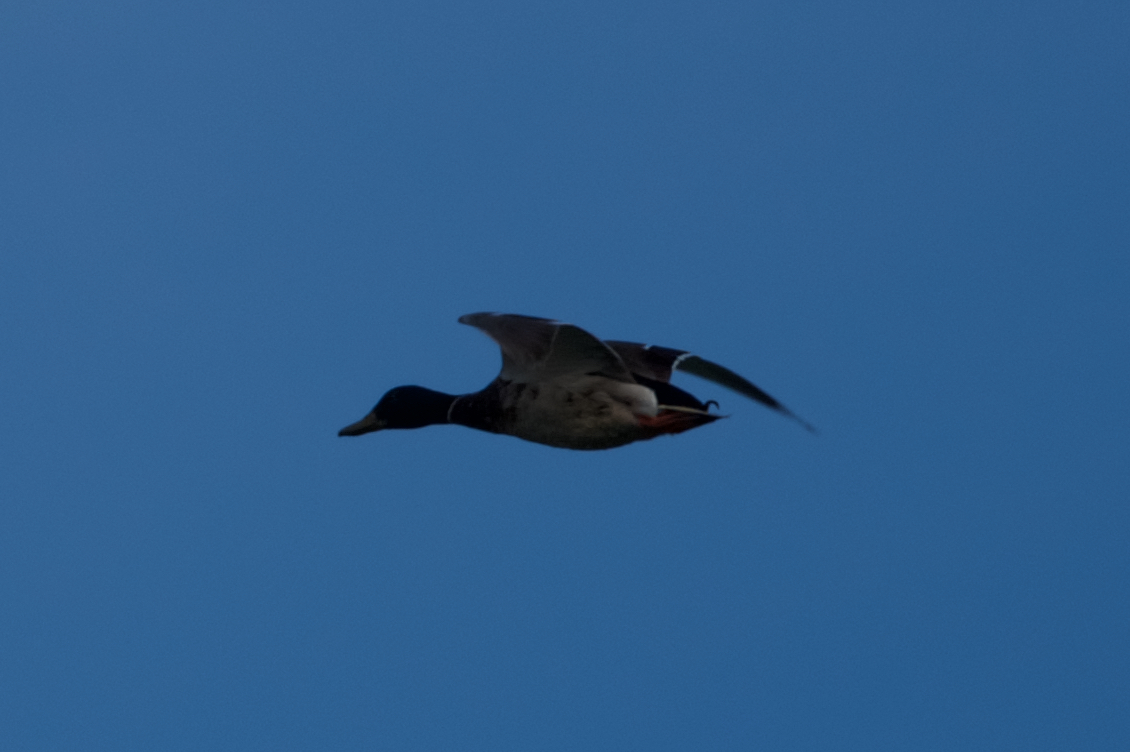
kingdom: Animalia
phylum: Chordata
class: Aves
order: Anseriformes
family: Anatidae
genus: Anas
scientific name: Anas platyrhynchos
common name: Mallard
